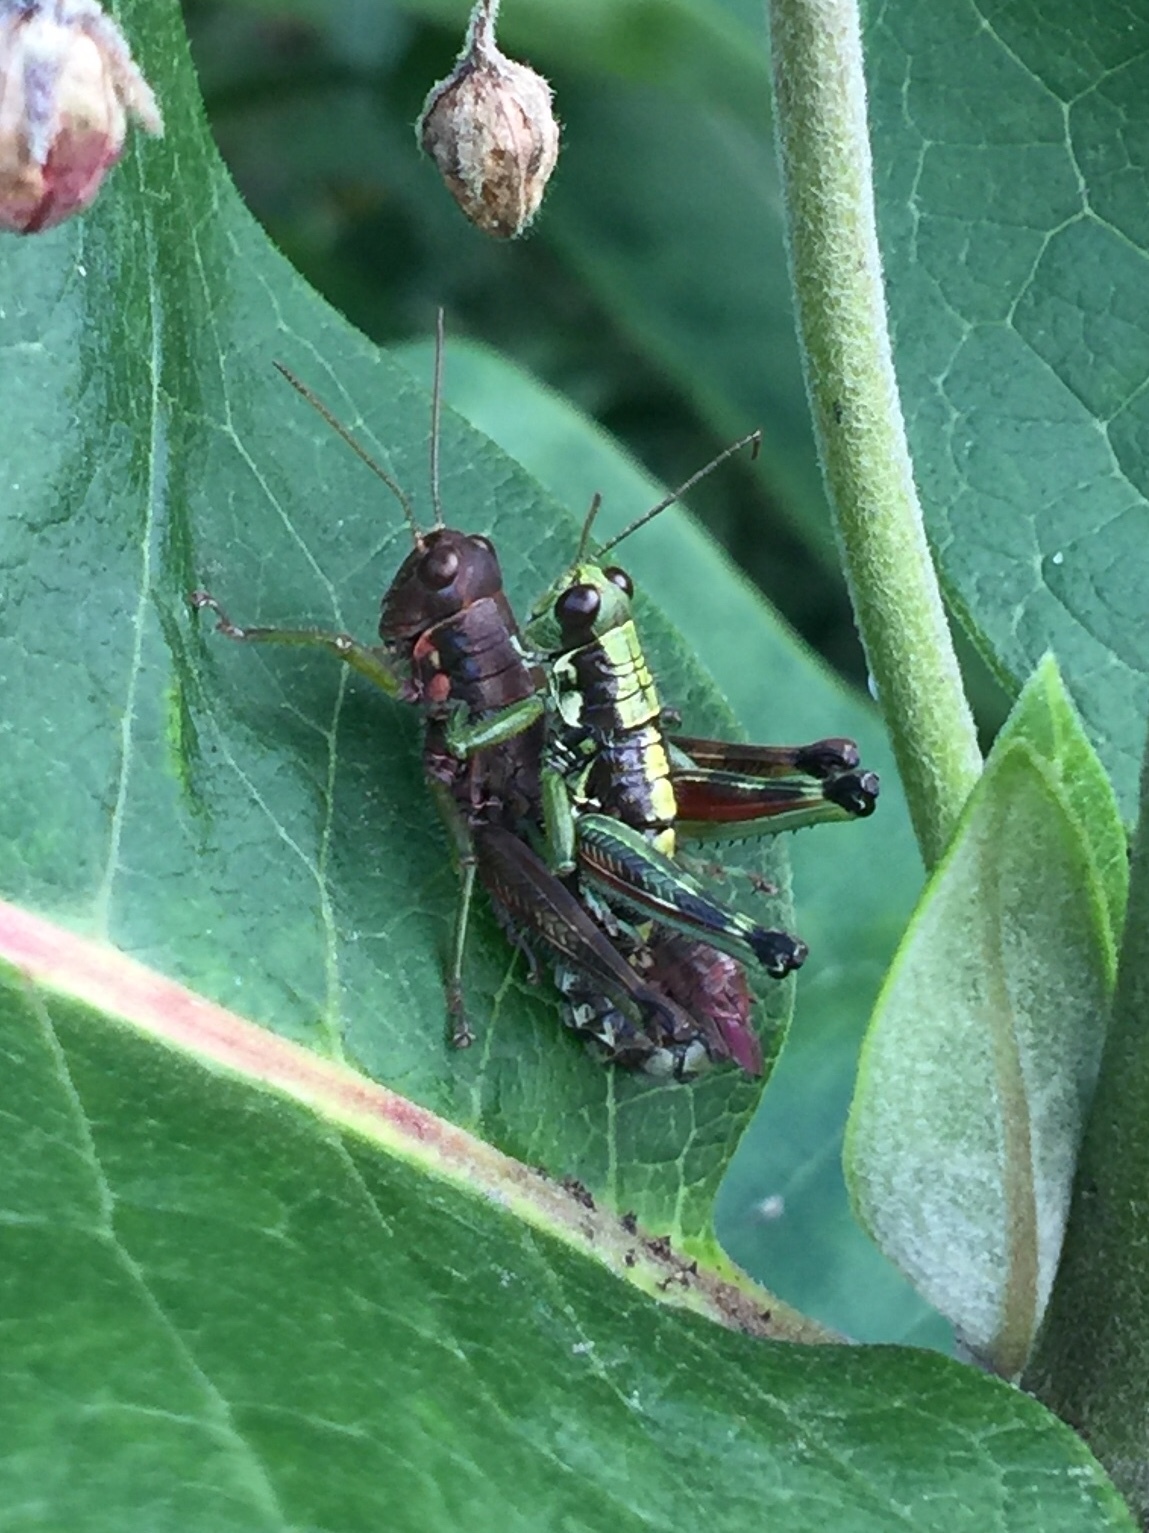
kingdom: Animalia
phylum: Arthropoda
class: Insecta
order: Orthoptera
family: Acrididae
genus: Booneacris
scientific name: Booneacris glacialis
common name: Wingless mountain grasshopper
